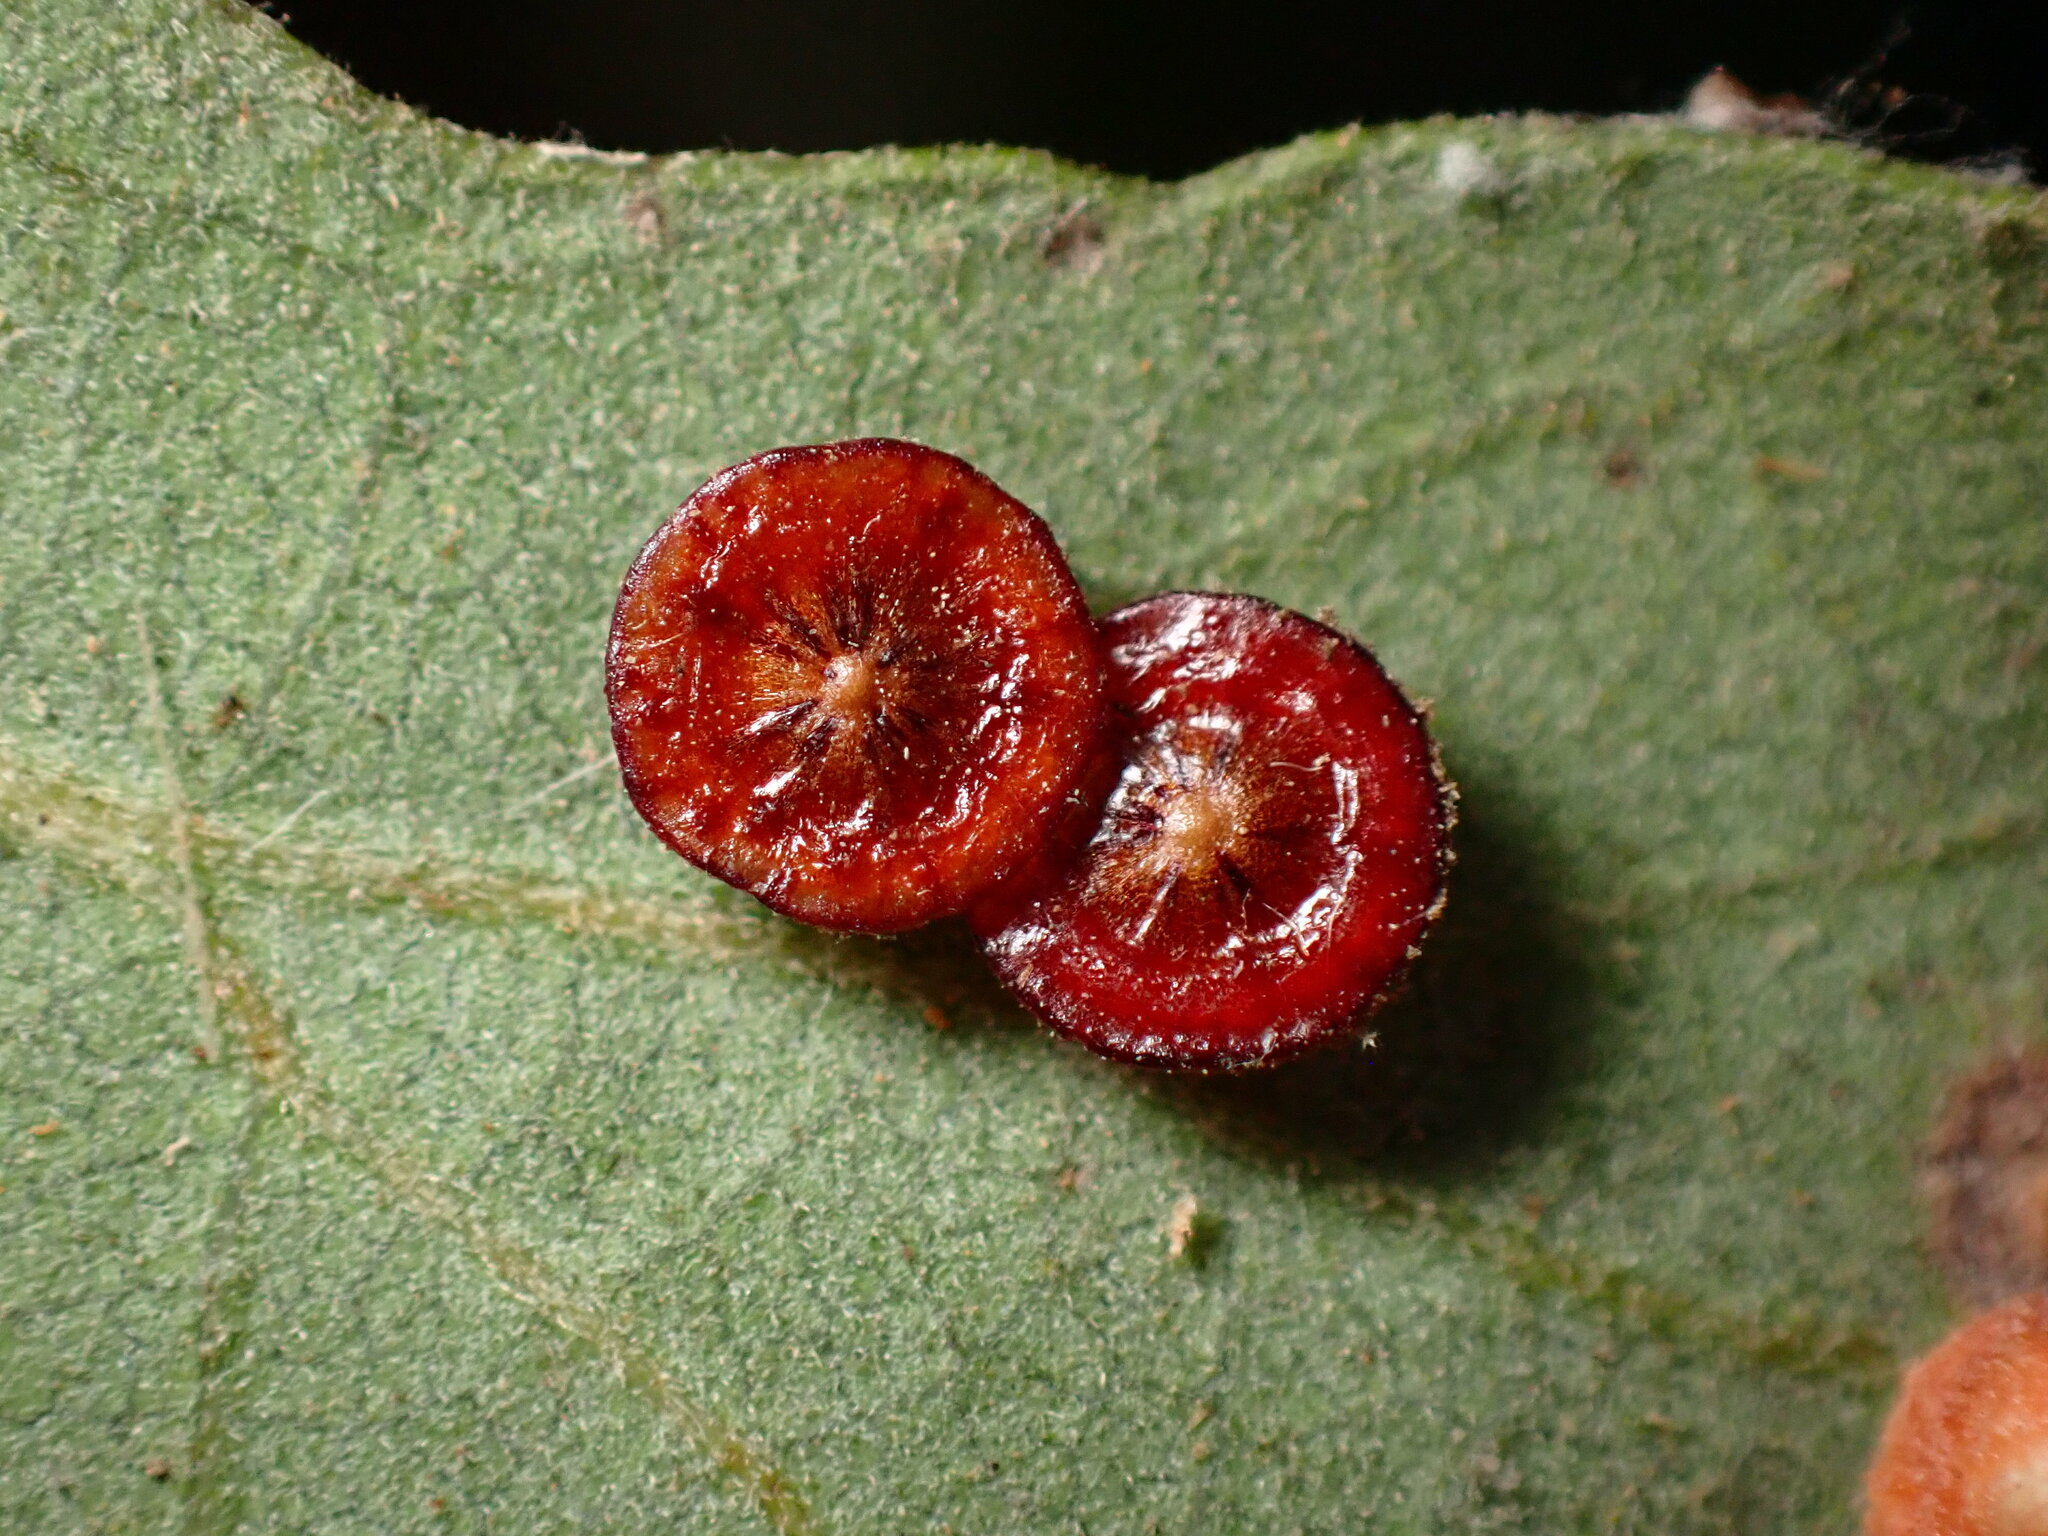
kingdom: Animalia
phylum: Arthropoda
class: Insecta
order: Hymenoptera
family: Cynipidae
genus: Andricus
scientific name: Andricus
